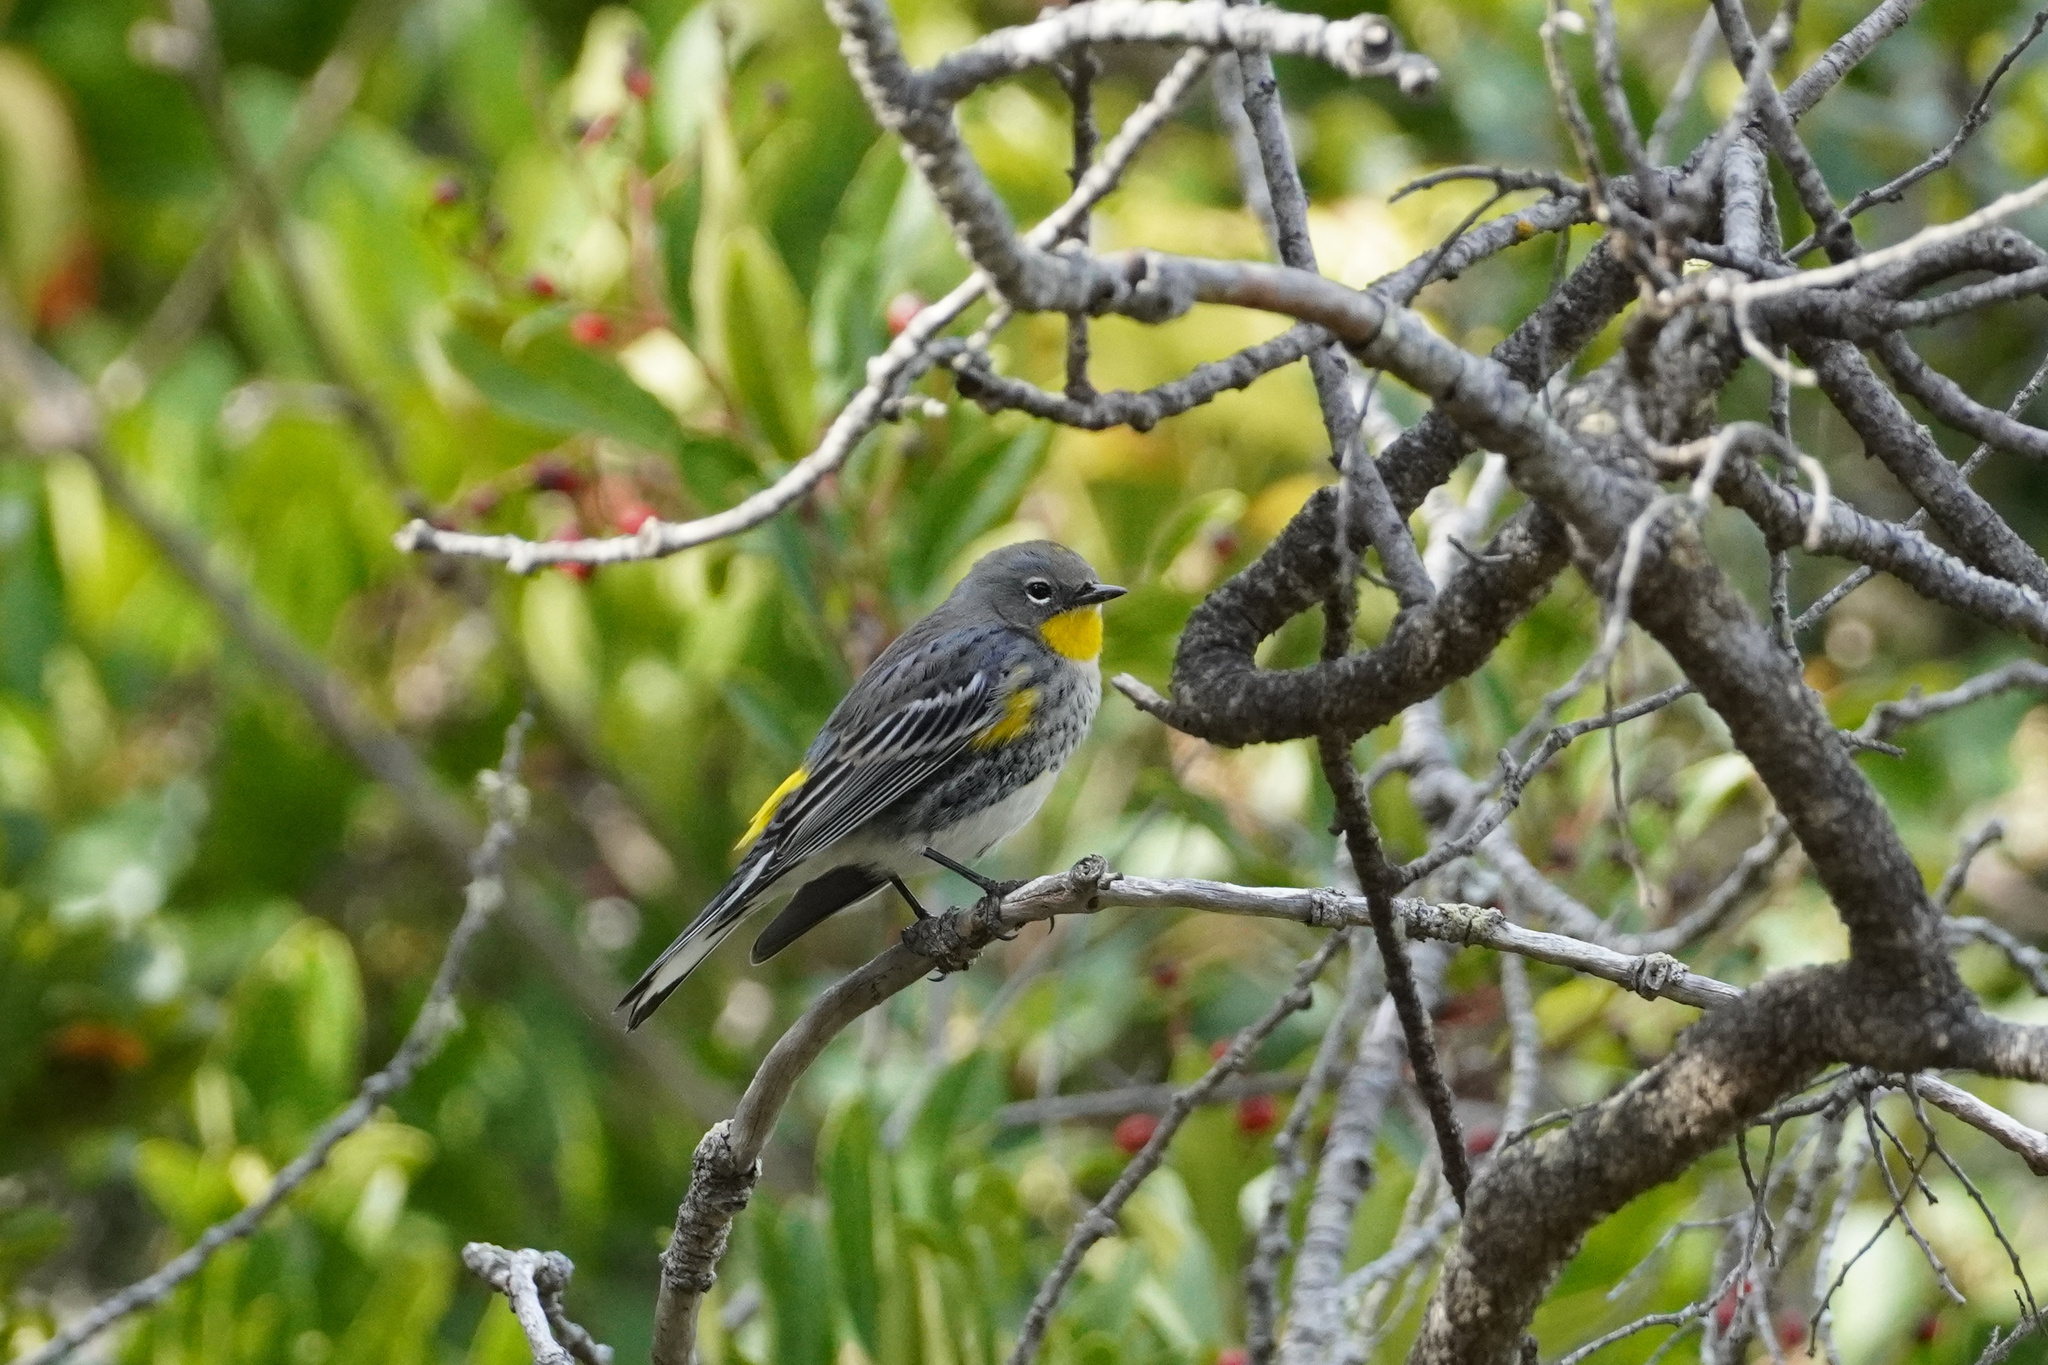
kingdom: Animalia
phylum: Chordata
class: Aves
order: Passeriformes
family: Parulidae
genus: Setophaga
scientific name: Setophaga auduboni
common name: Audubon's warbler
